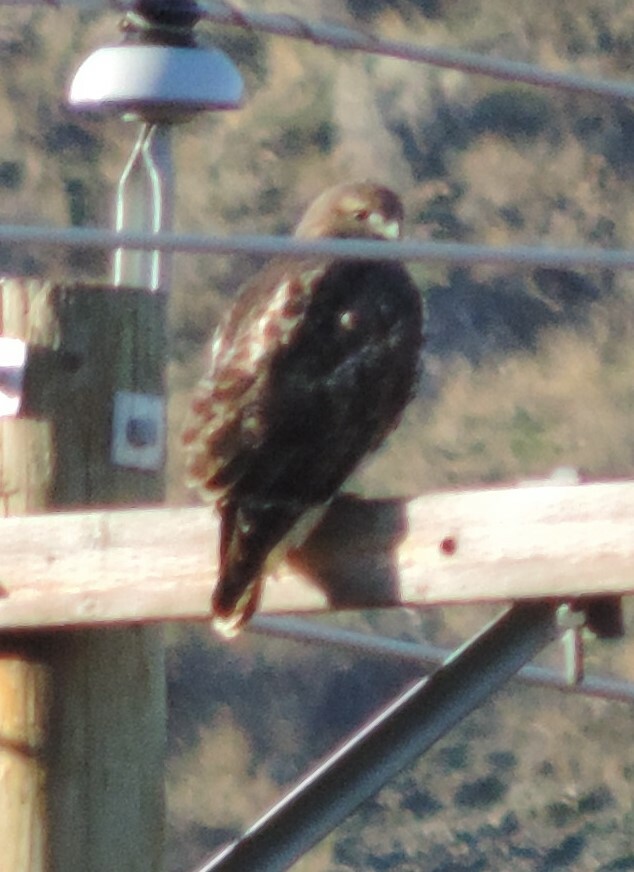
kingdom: Animalia
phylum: Chordata
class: Aves
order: Accipitriformes
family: Accipitridae
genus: Buteo
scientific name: Buteo jamaicensis
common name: Red-tailed hawk
